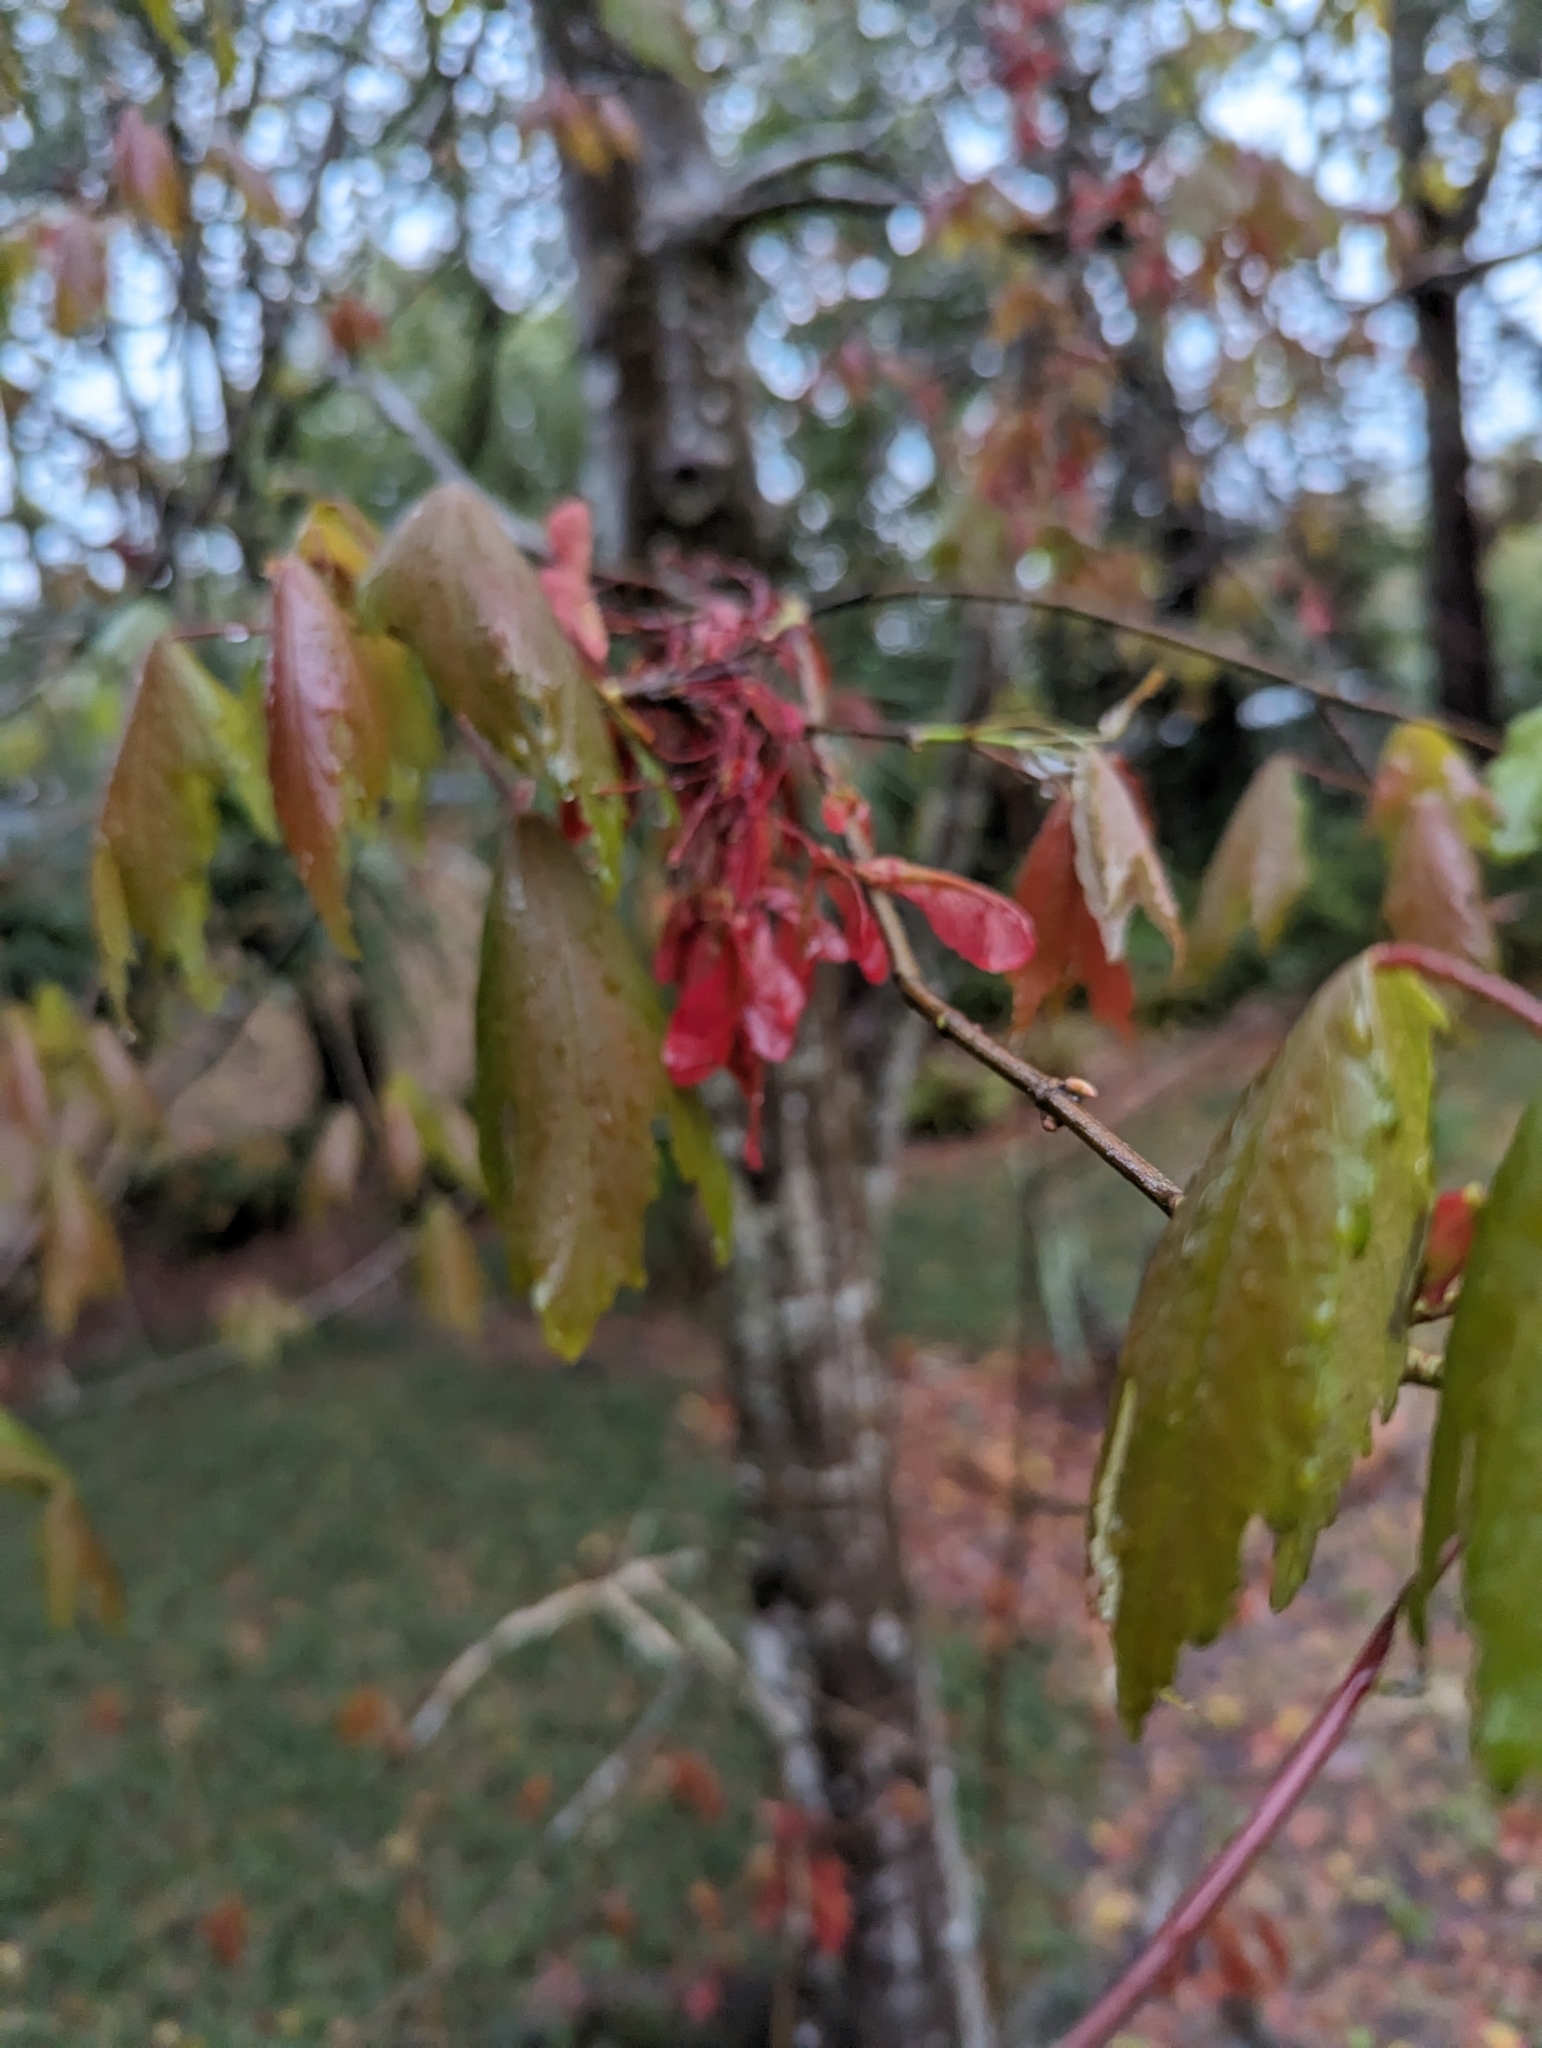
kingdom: Plantae
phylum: Tracheophyta
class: Magnoliopsida
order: Sapindales
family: Sapindaceae
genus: Acer
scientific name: Acer rubrum
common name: Red maple
